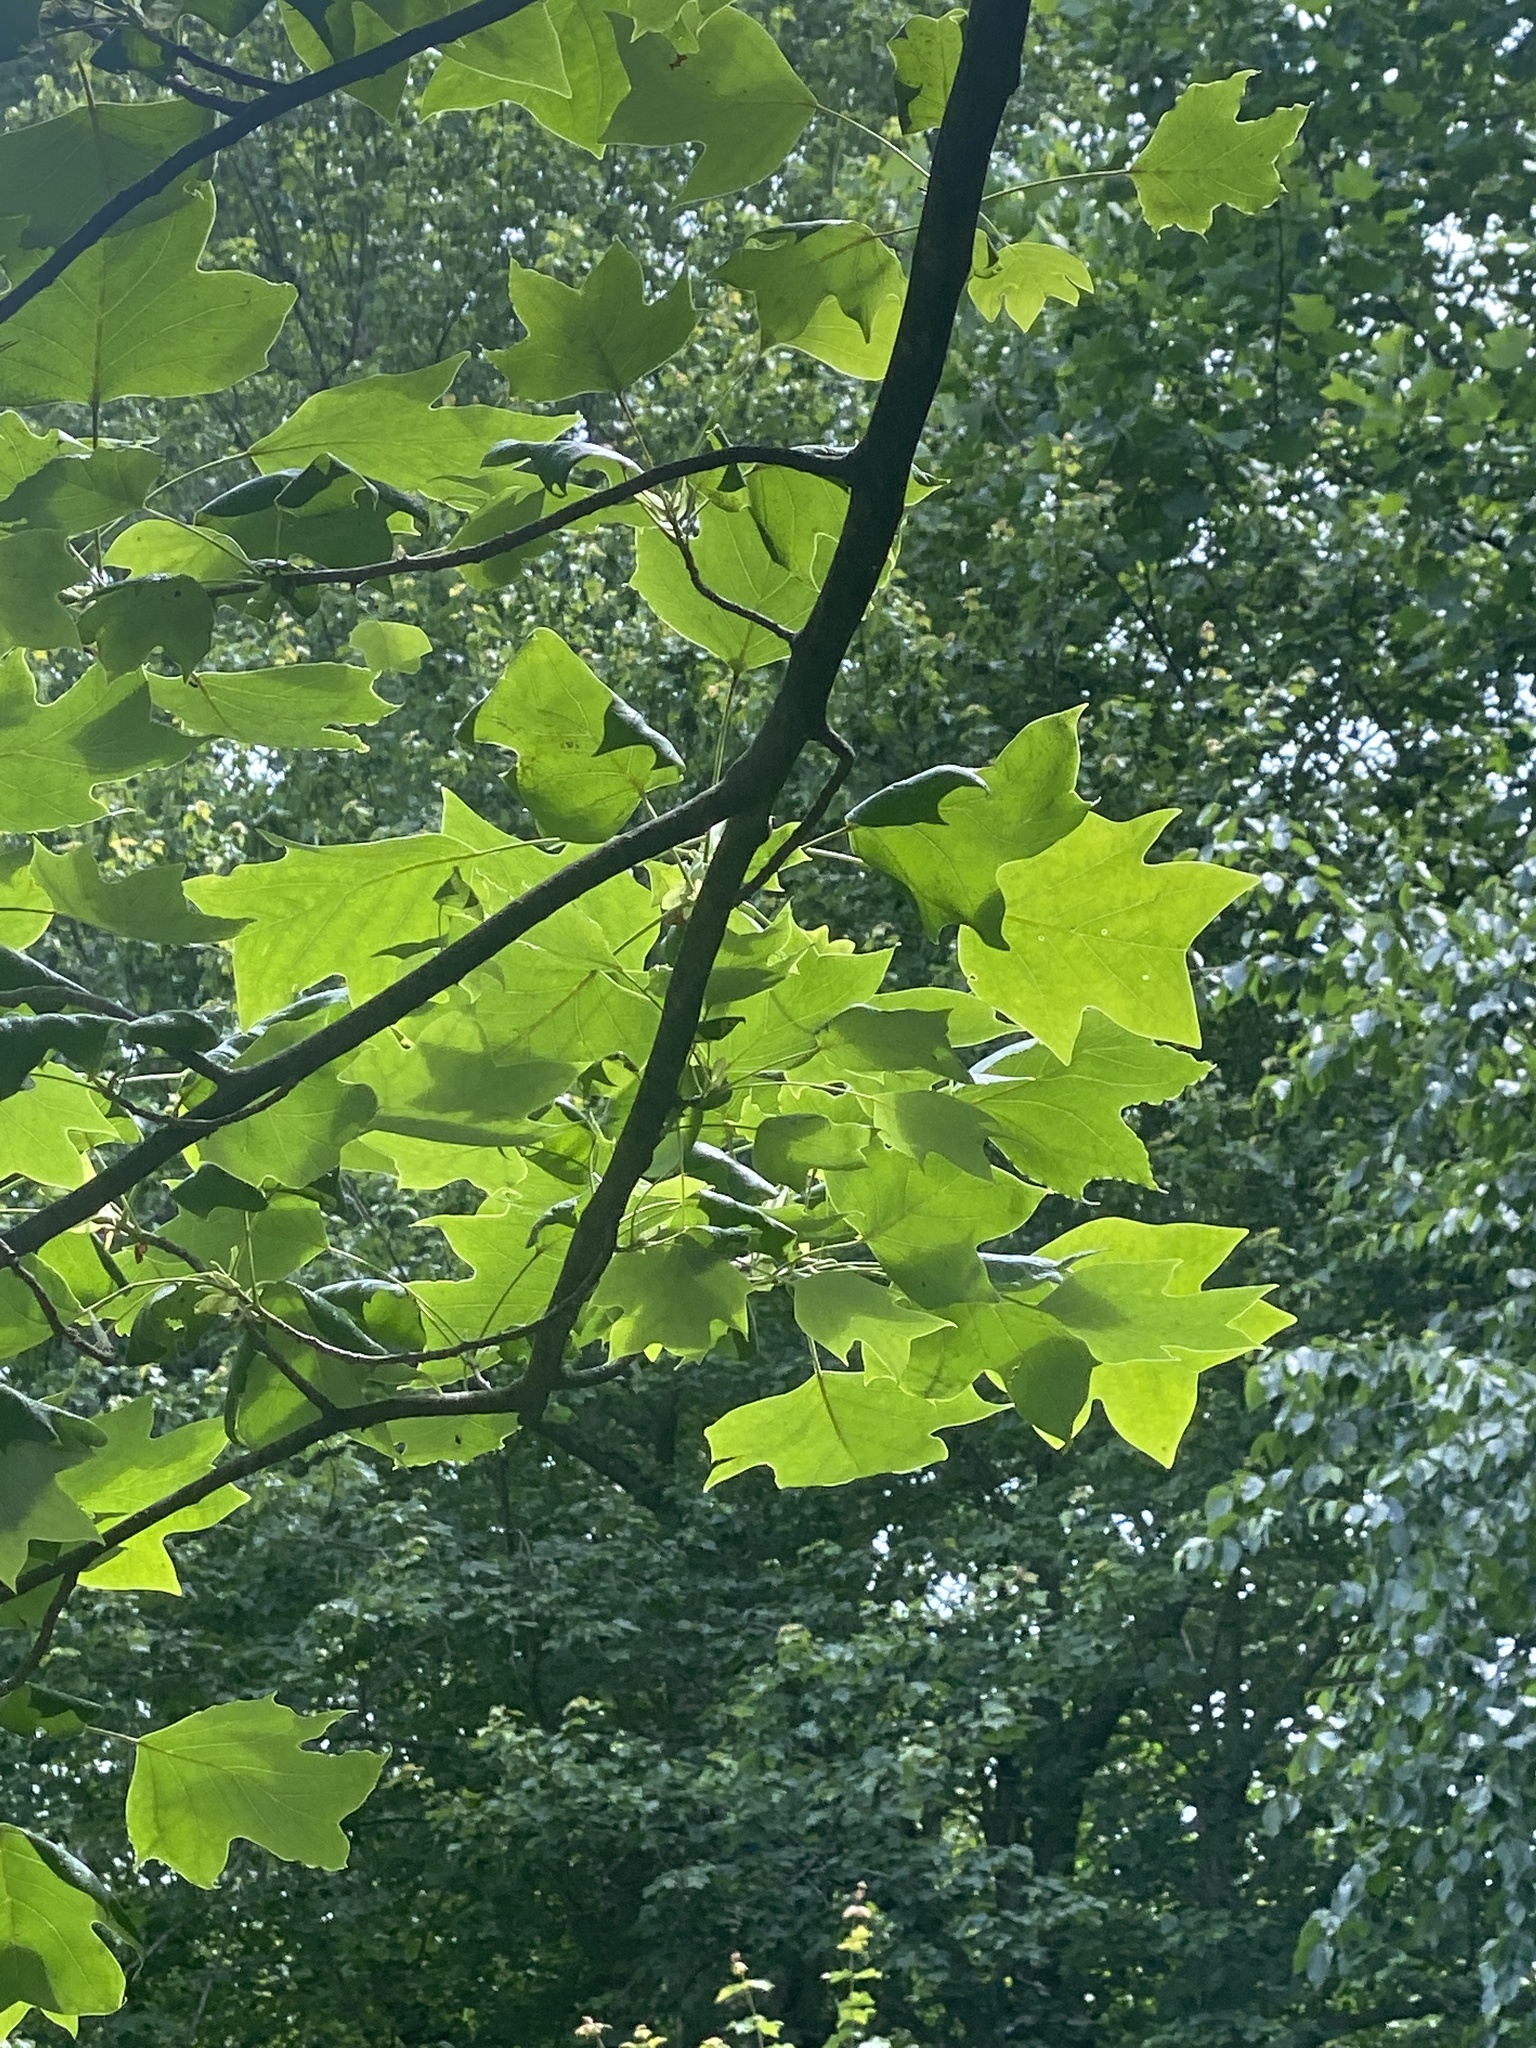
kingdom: Plantae
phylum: Tracheophyta
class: Magnoliopsida
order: Magnoliales
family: Magnoliaceae
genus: Liriodendron
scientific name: Liriodendron tulipifera
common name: Tulip tree
